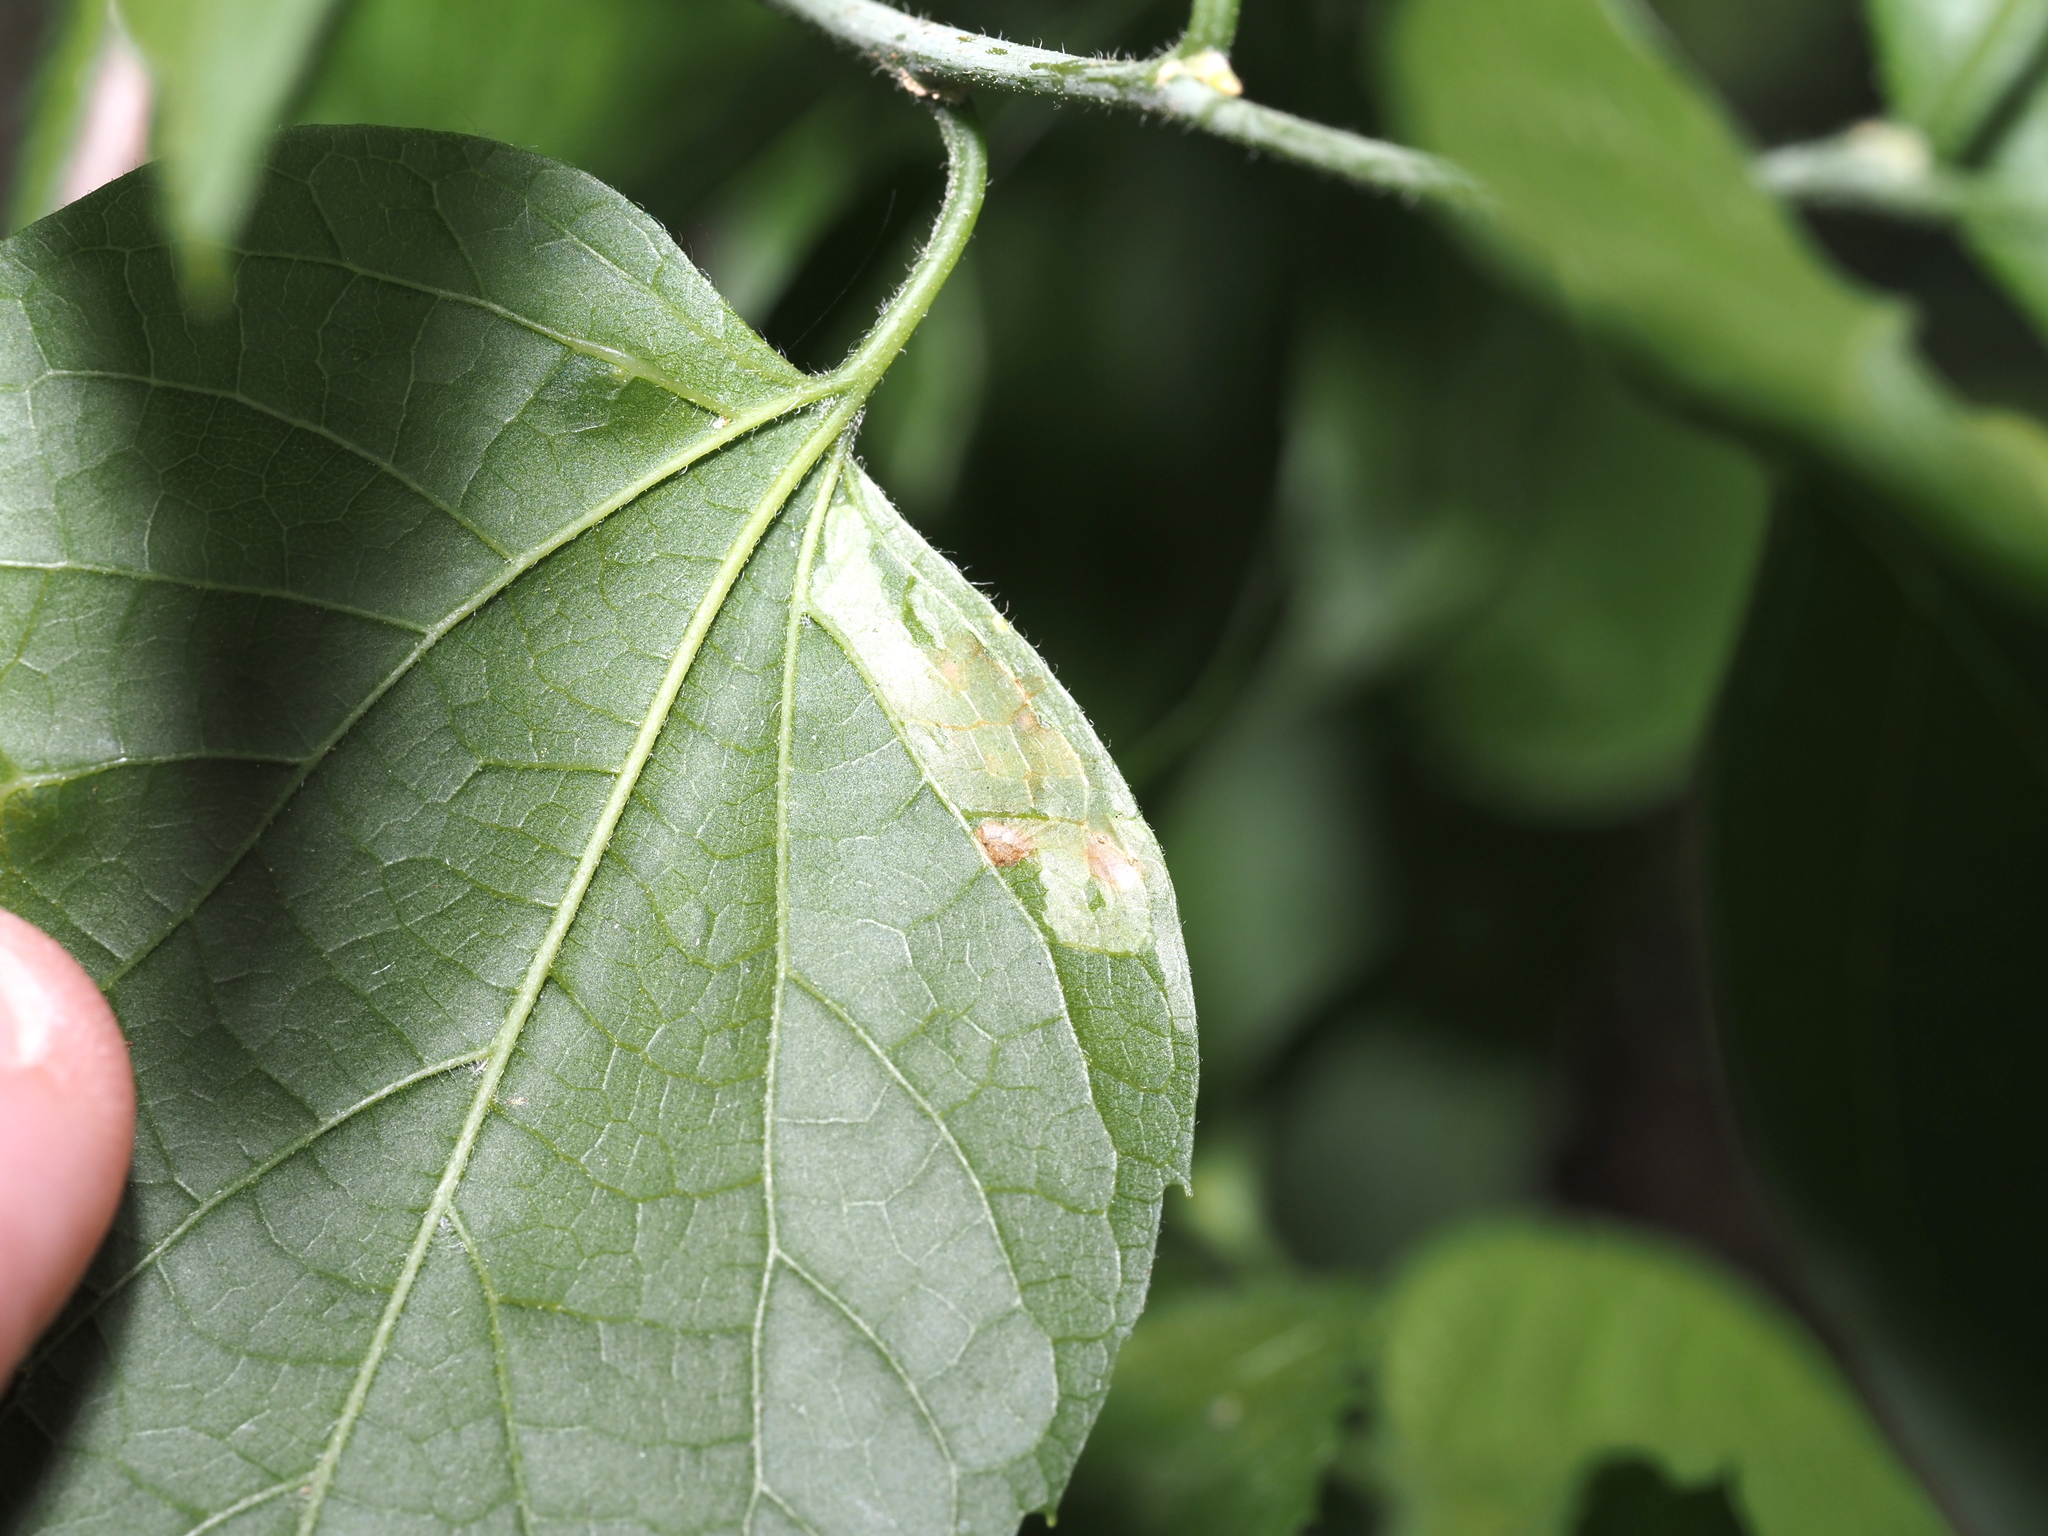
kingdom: Animalia
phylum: Arthropoda
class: Insecta
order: Diptera
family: Agromyzidae
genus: Agromyza
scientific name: Agromyza
